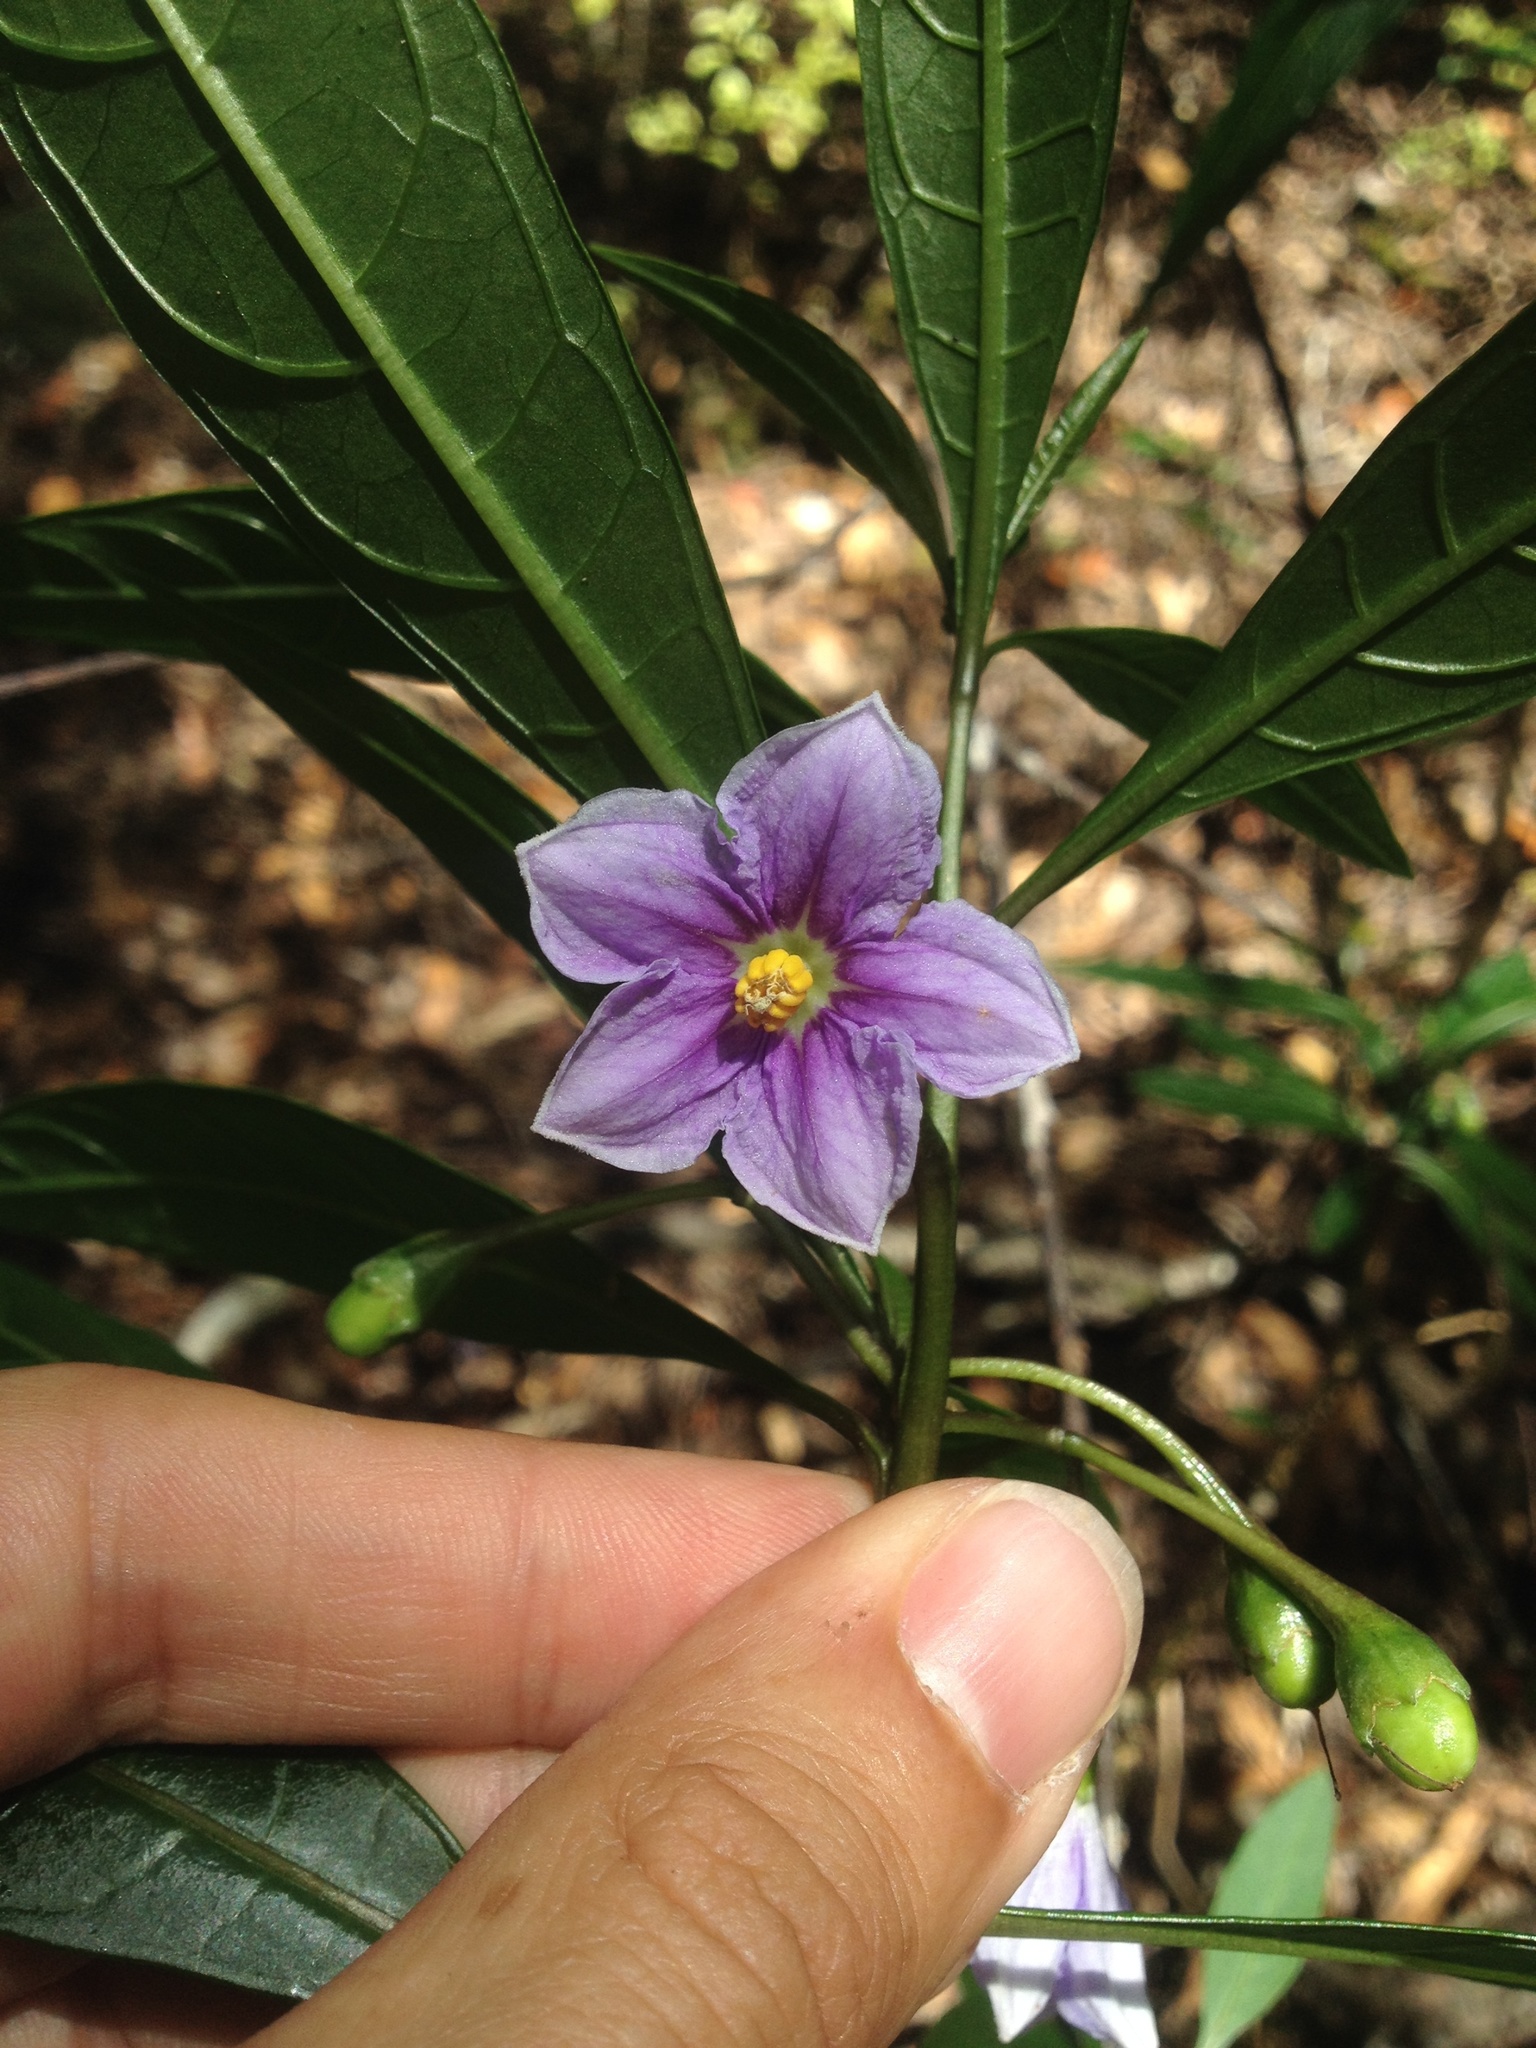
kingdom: Plantae
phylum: Tracheophyta
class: Magnoliopsida
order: Solanales
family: Solanaceae
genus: Solanum
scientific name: Solanum aviculare
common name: New zealand nightshade
